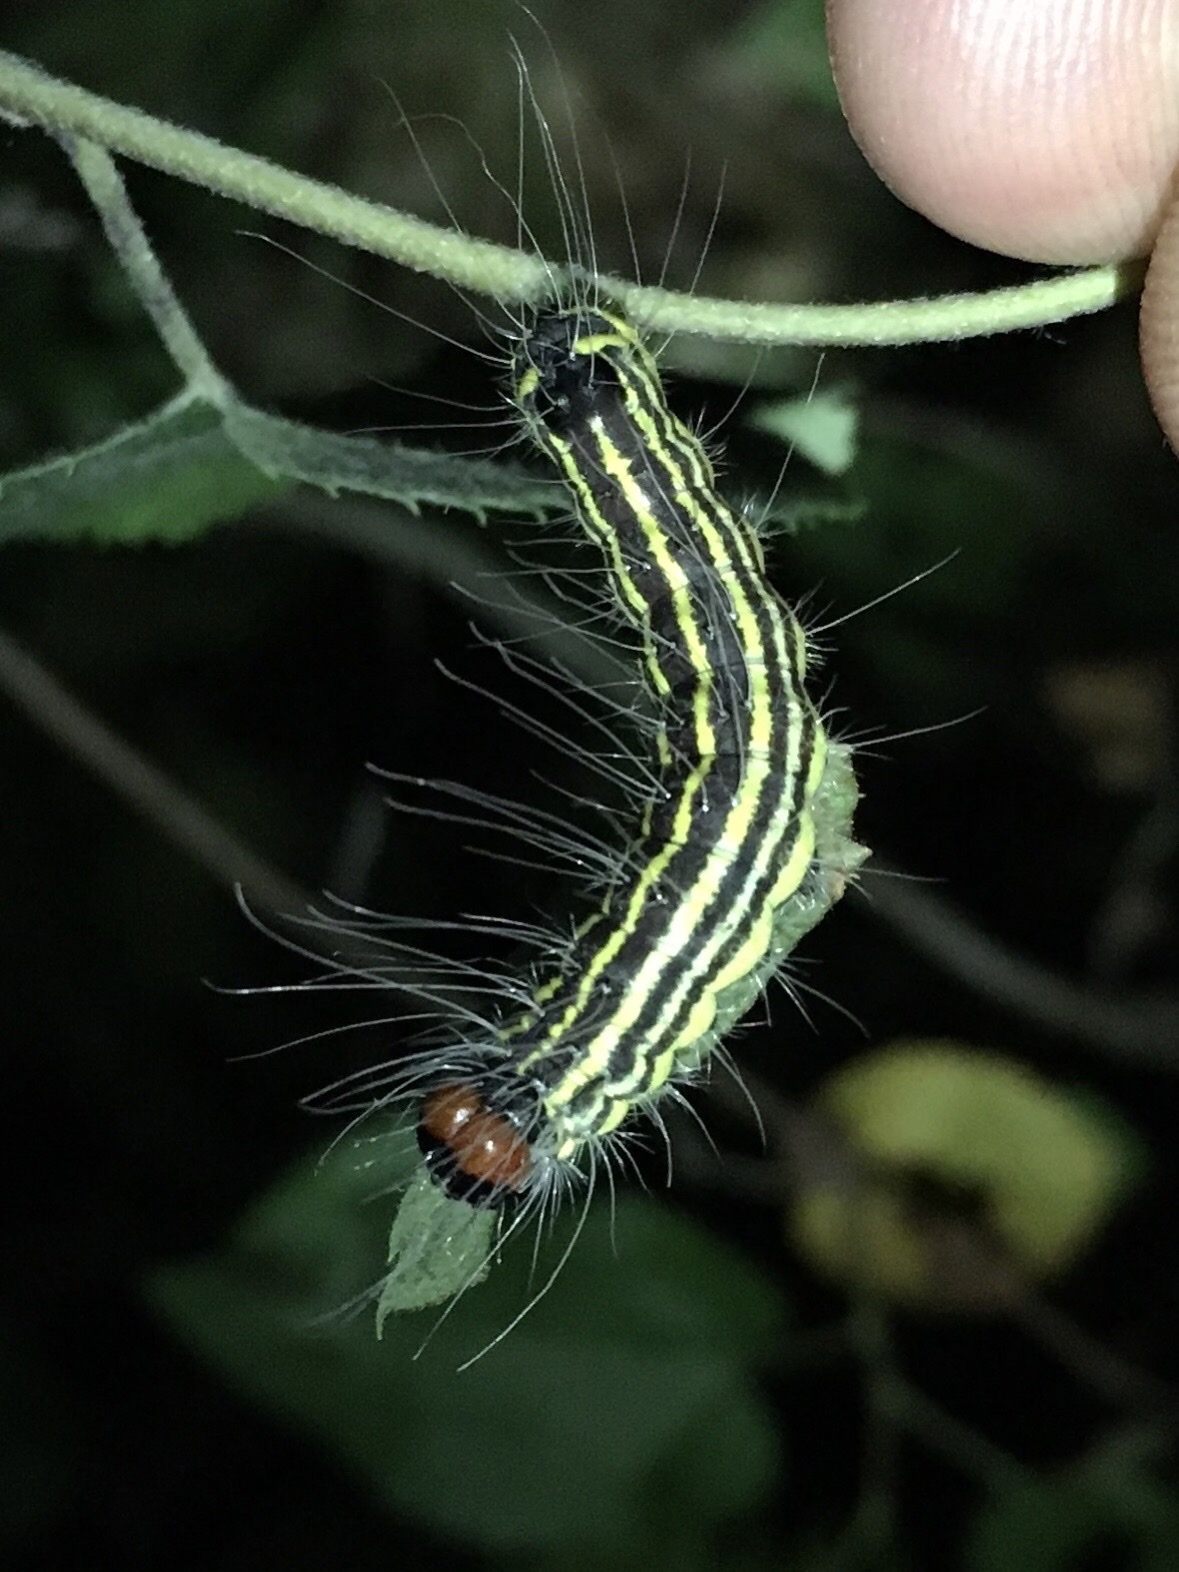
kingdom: Animalia
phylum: Arthropoda
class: Insecta
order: Lepidoptera
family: Noctuidae
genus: Acronicta
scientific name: Acronicta radcliffei
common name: Radcliffe's dagger
